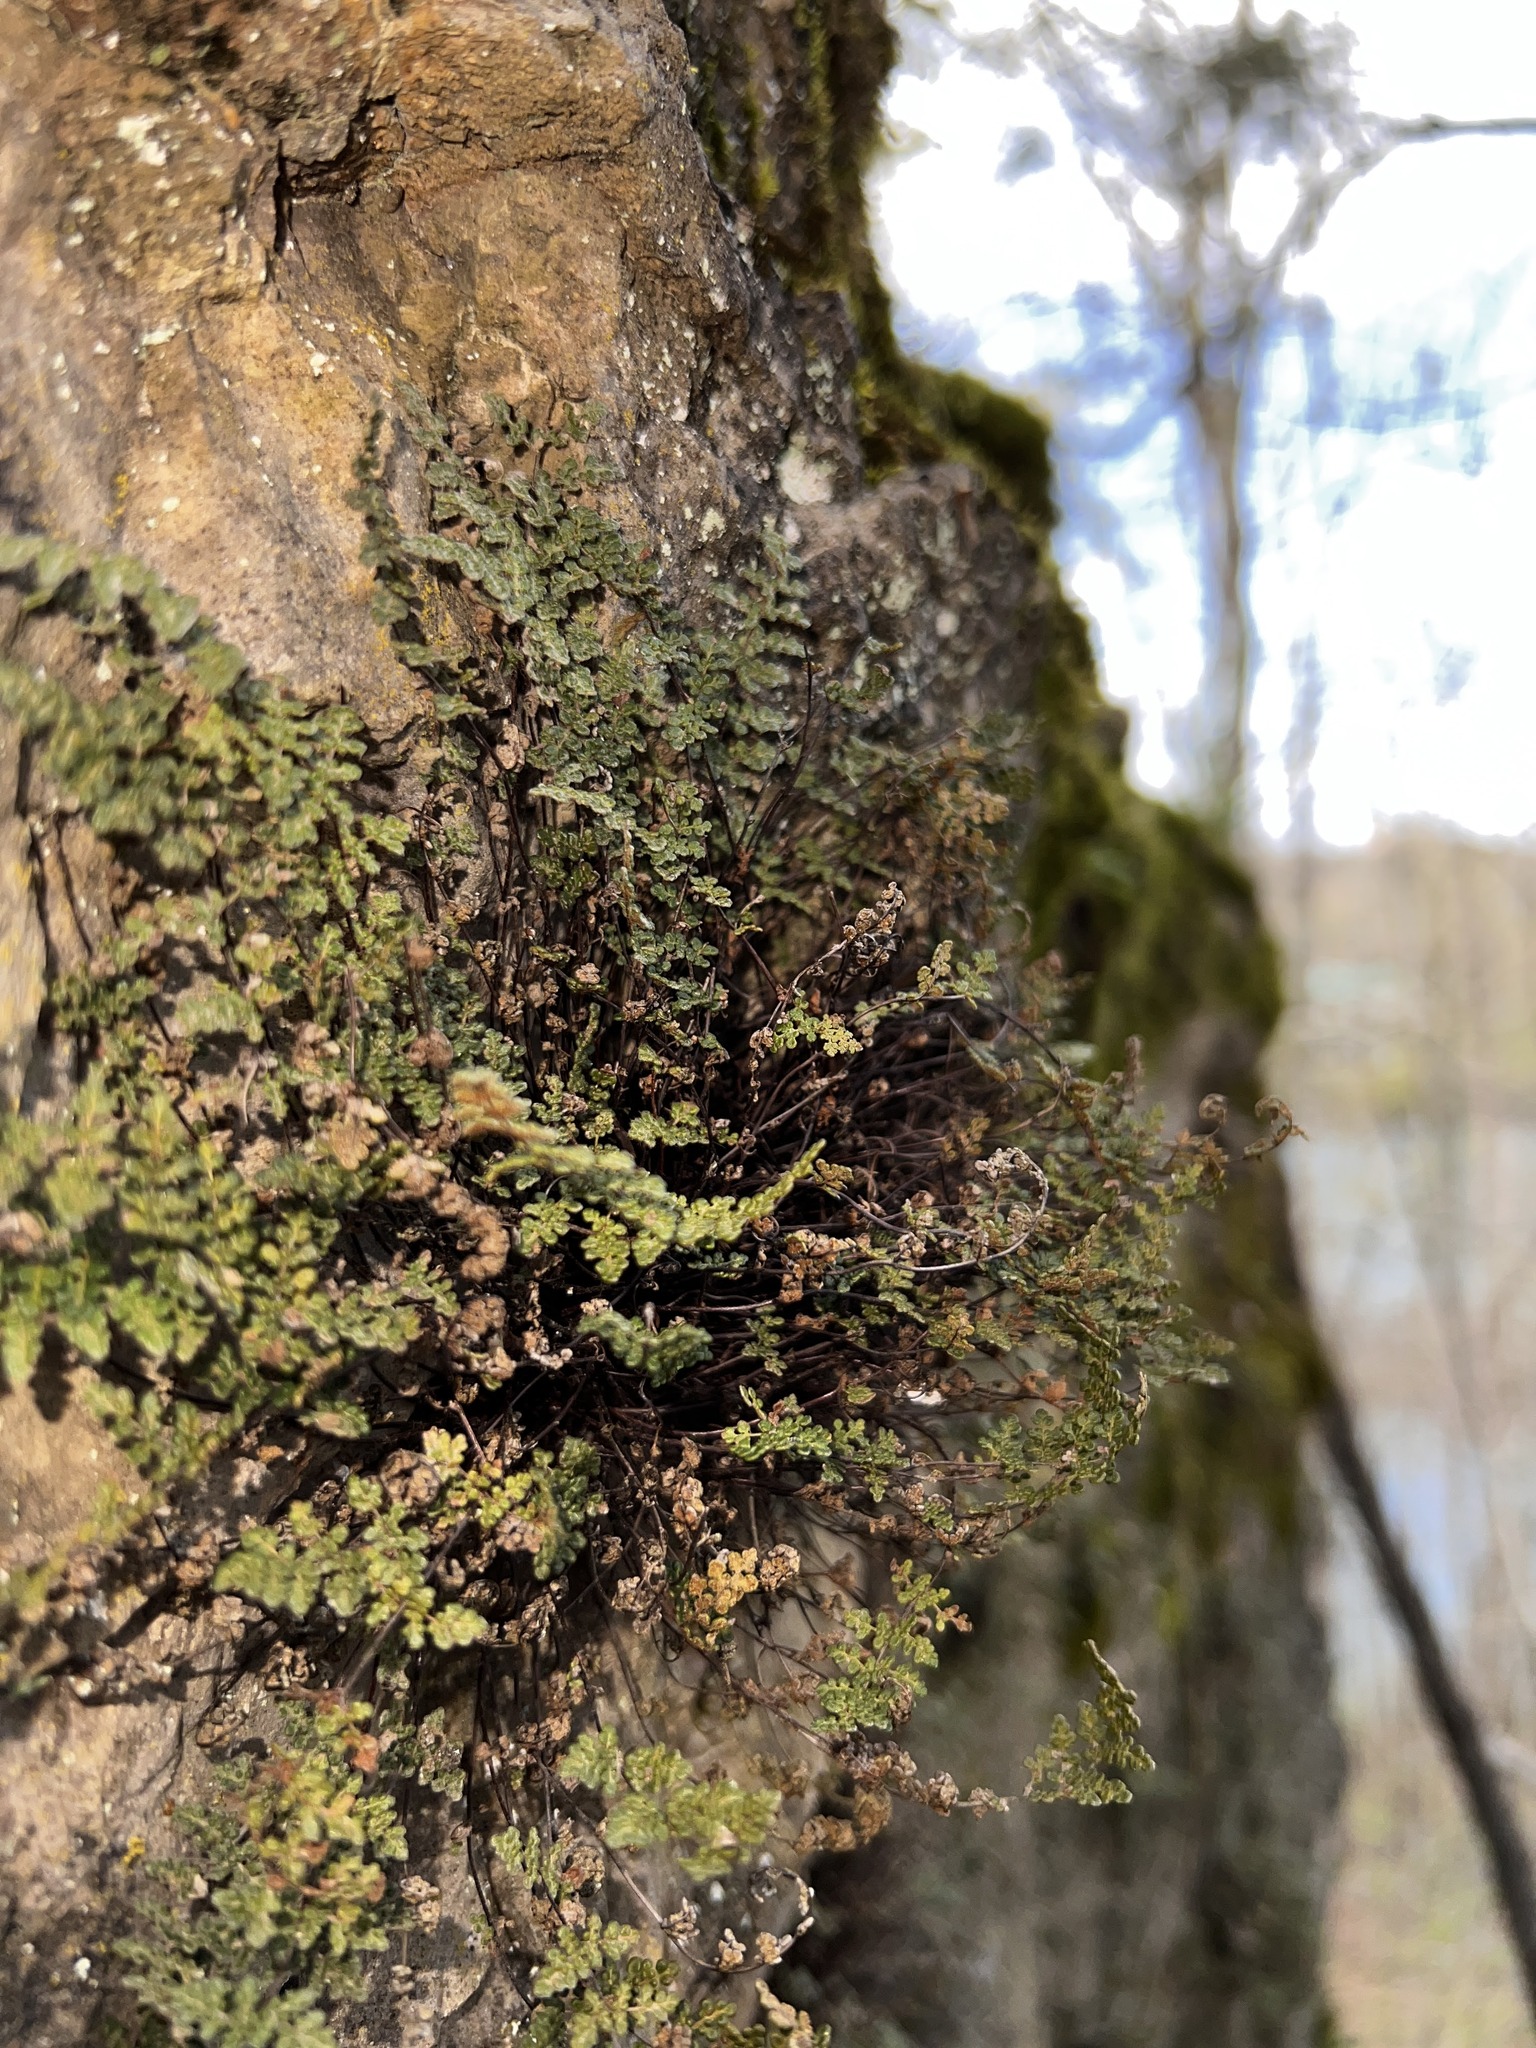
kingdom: Plantae
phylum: Tracheophyta
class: Polypodiopsida
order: Polypodiales
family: Pteridaceae
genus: Myriopteris
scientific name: Myriopteris gracilis
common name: Fee's lip fern
